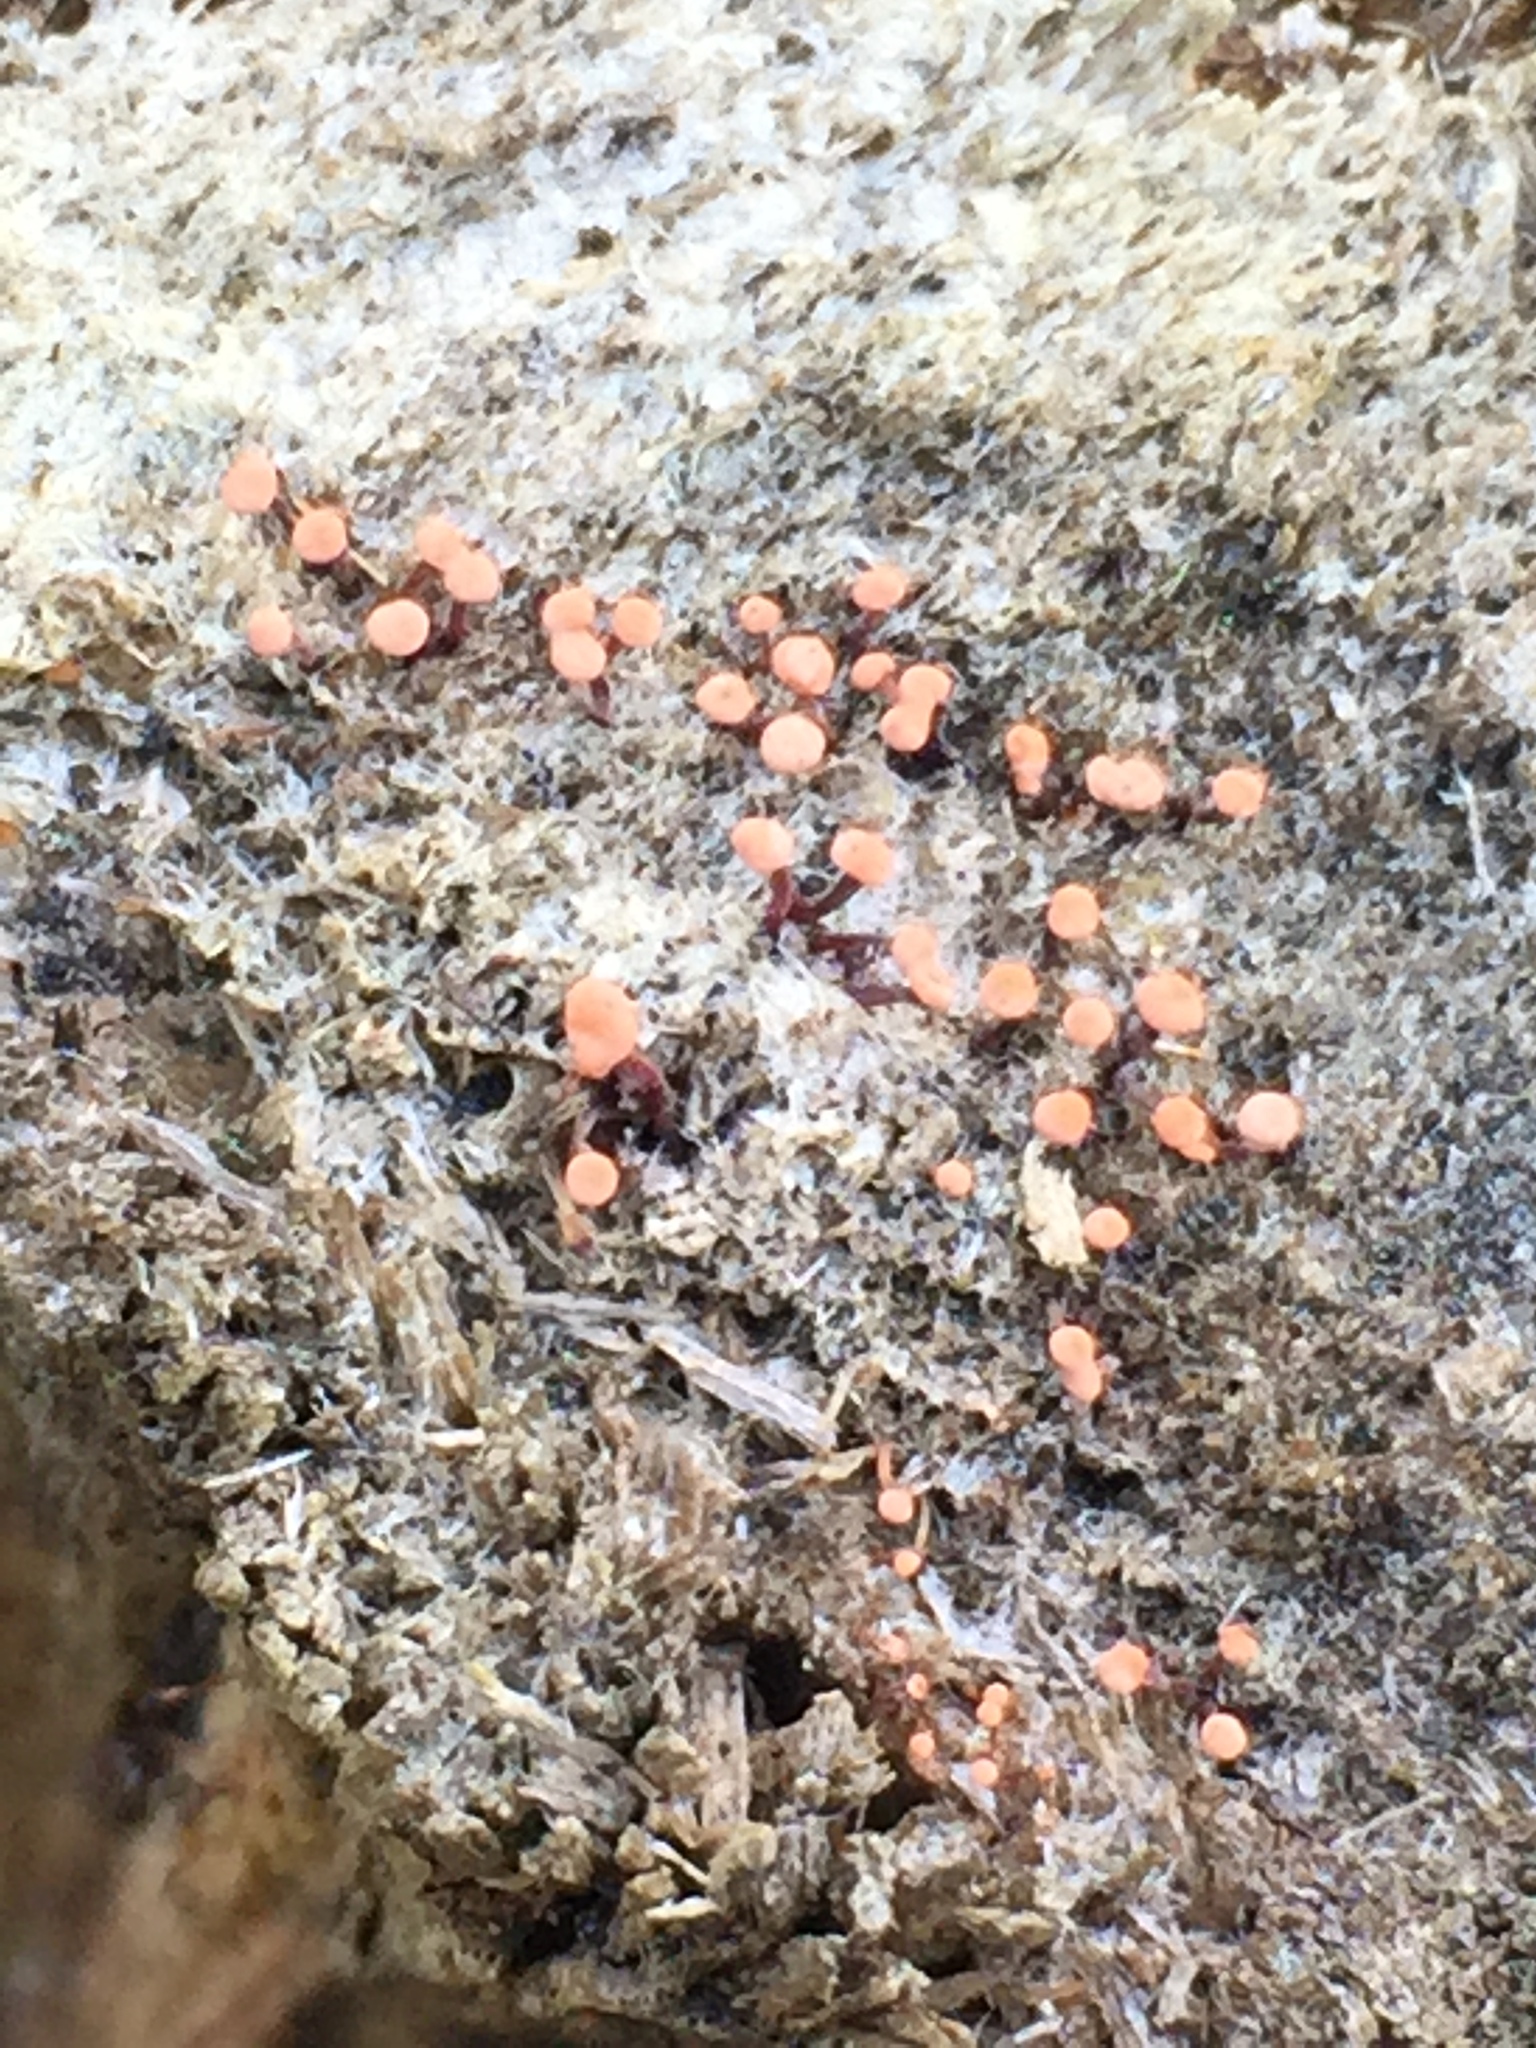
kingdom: Fungi
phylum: Ascomycota
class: Sordariomycetes
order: Hypocreales
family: Nectriaceae
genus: Murinectria
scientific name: Murinectria polythalama
